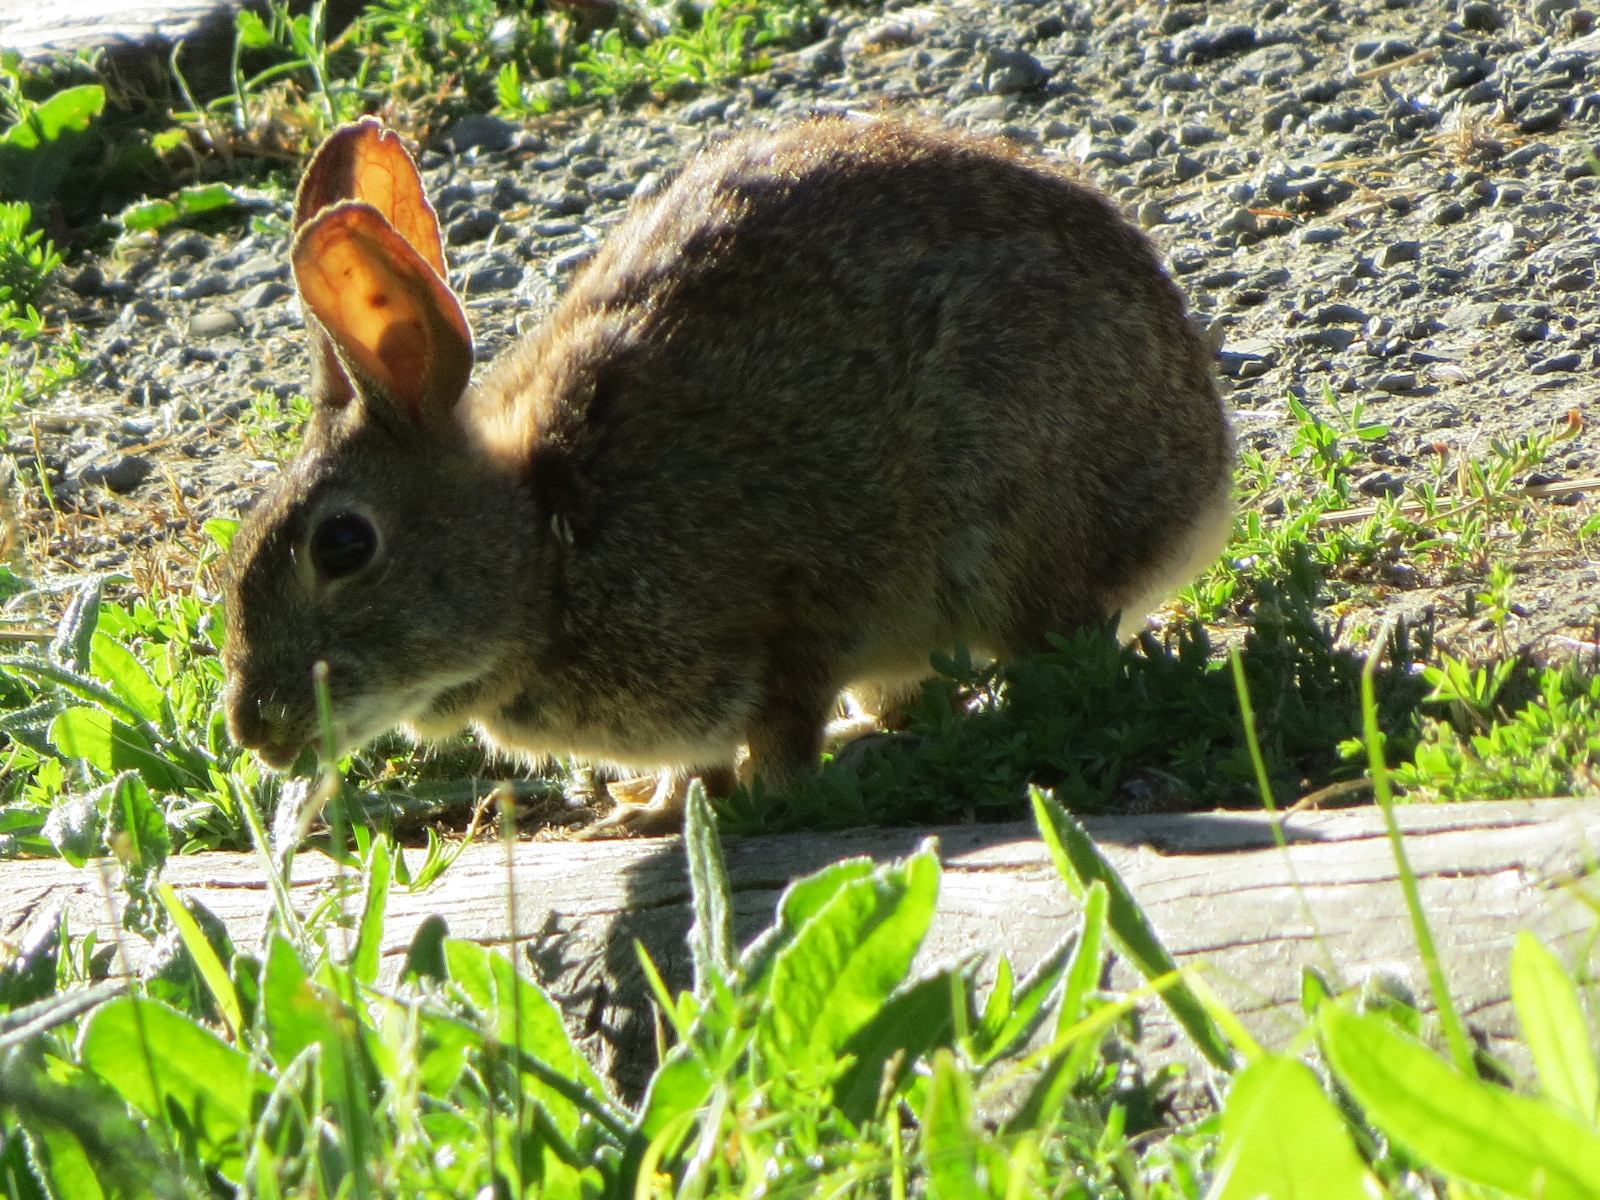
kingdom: Animalia
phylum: Chordata
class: Mammalia
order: Lagomorpha
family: Leporidae
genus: Sylvilagus
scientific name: Sylvilagus bachmani
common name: Brush rabbit
